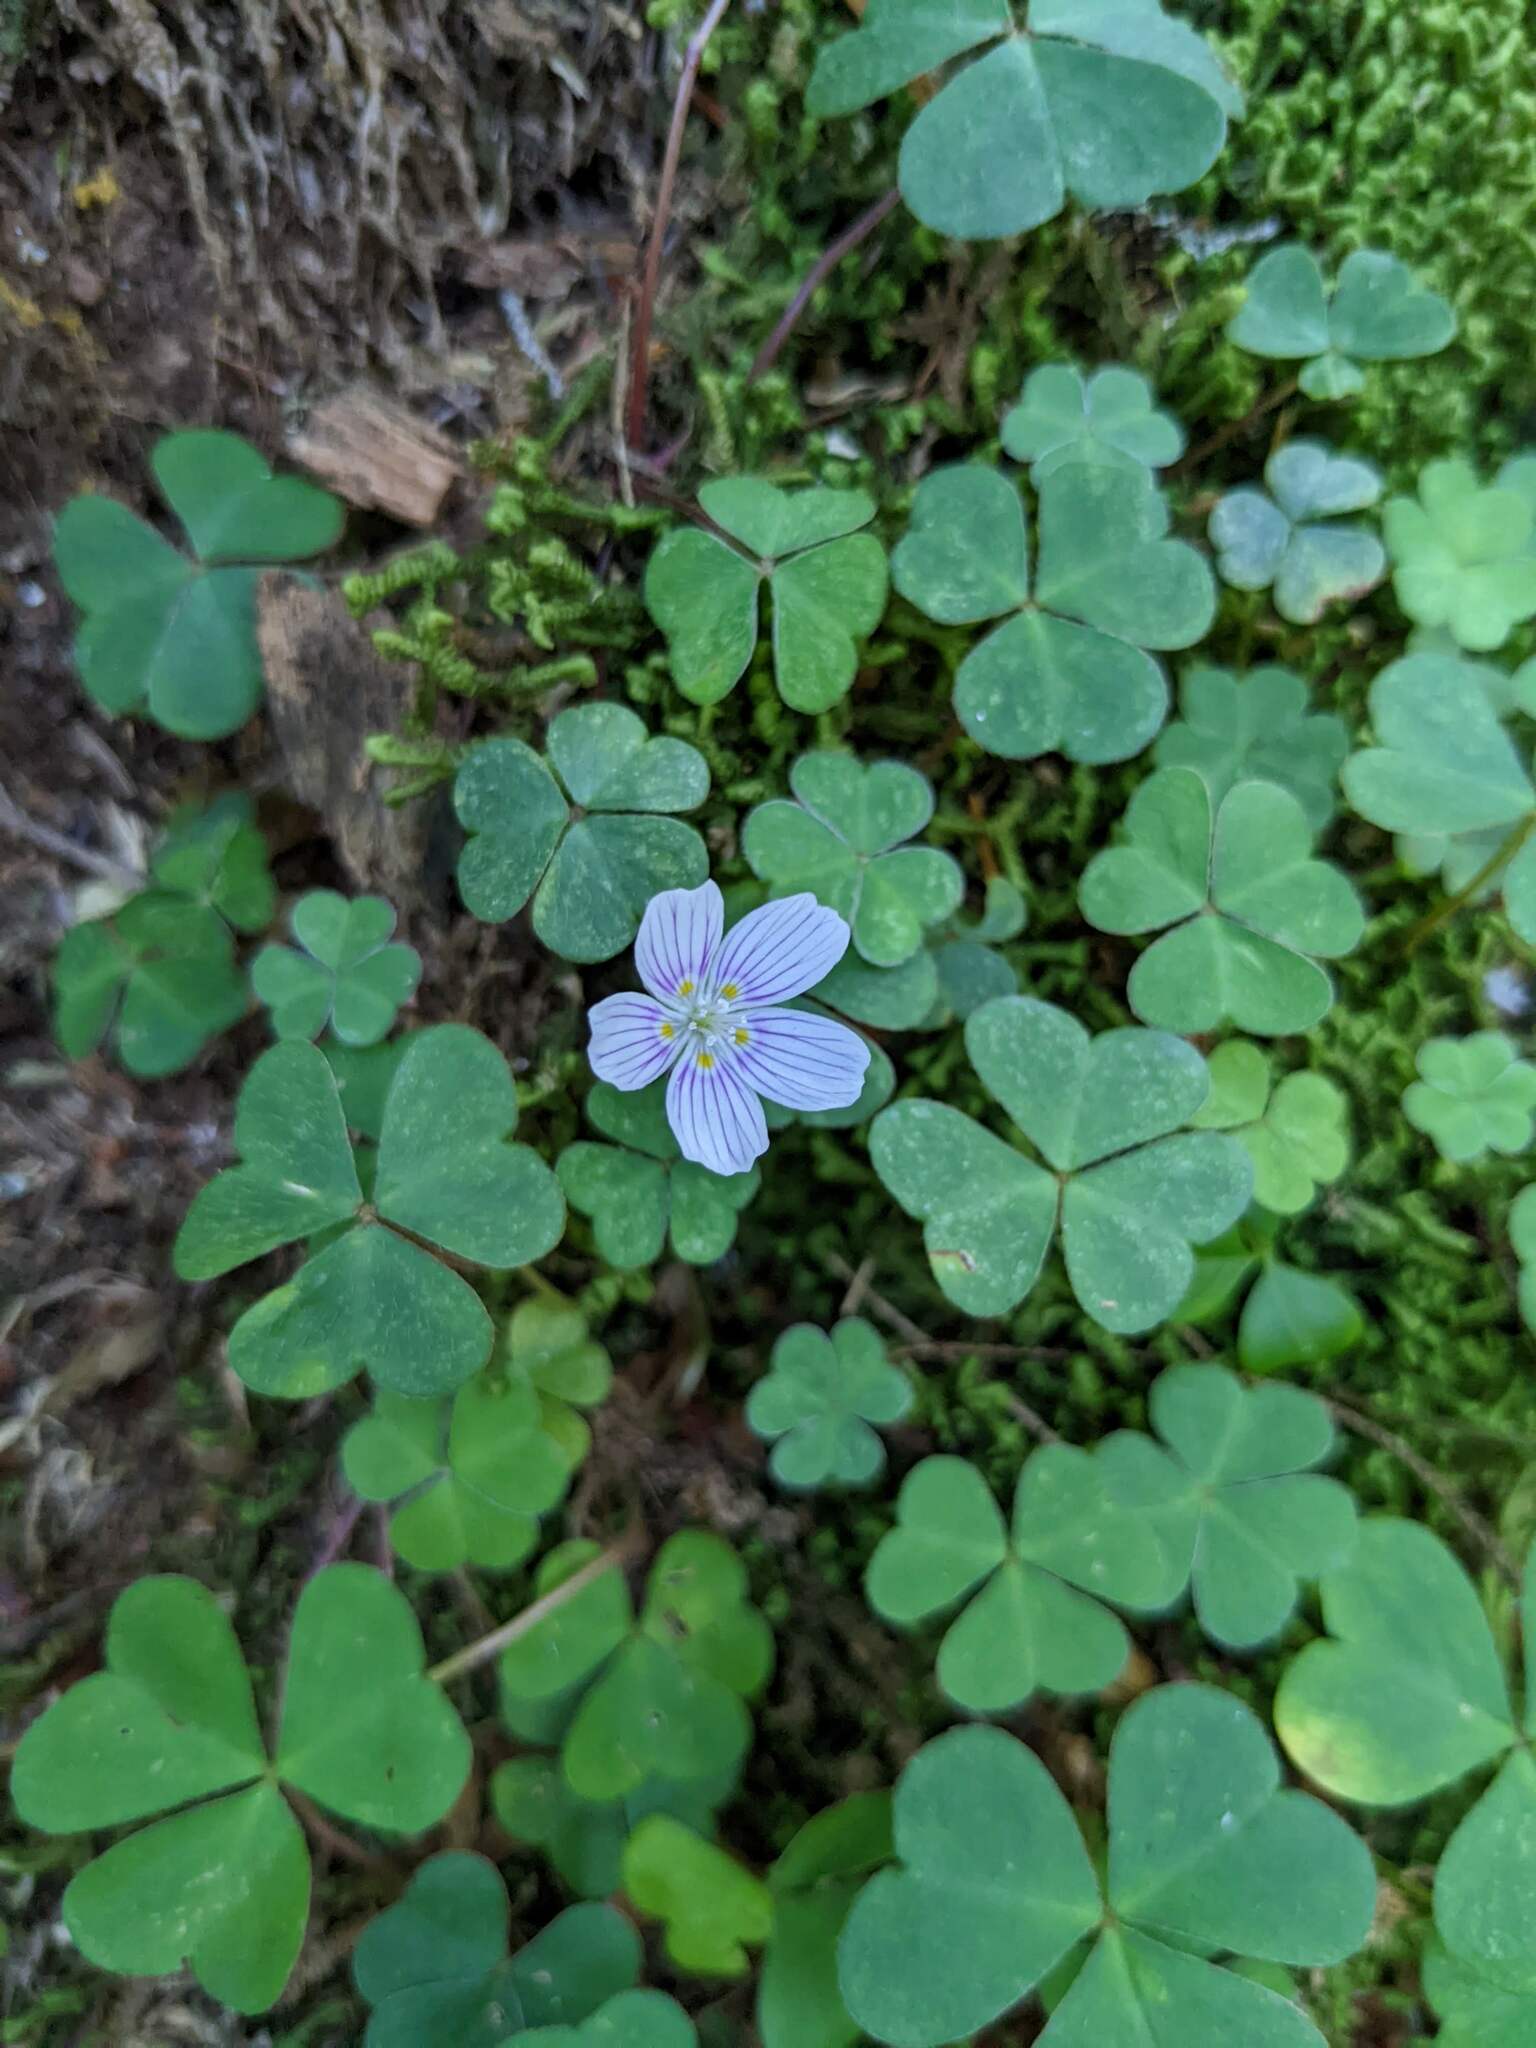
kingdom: Plantae
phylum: Tracheophyta
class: Magnoliopsida
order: Oxalidales
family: Oxalidaceae
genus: Oxalis
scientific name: Oxalis montana
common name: American wood-sorrel
